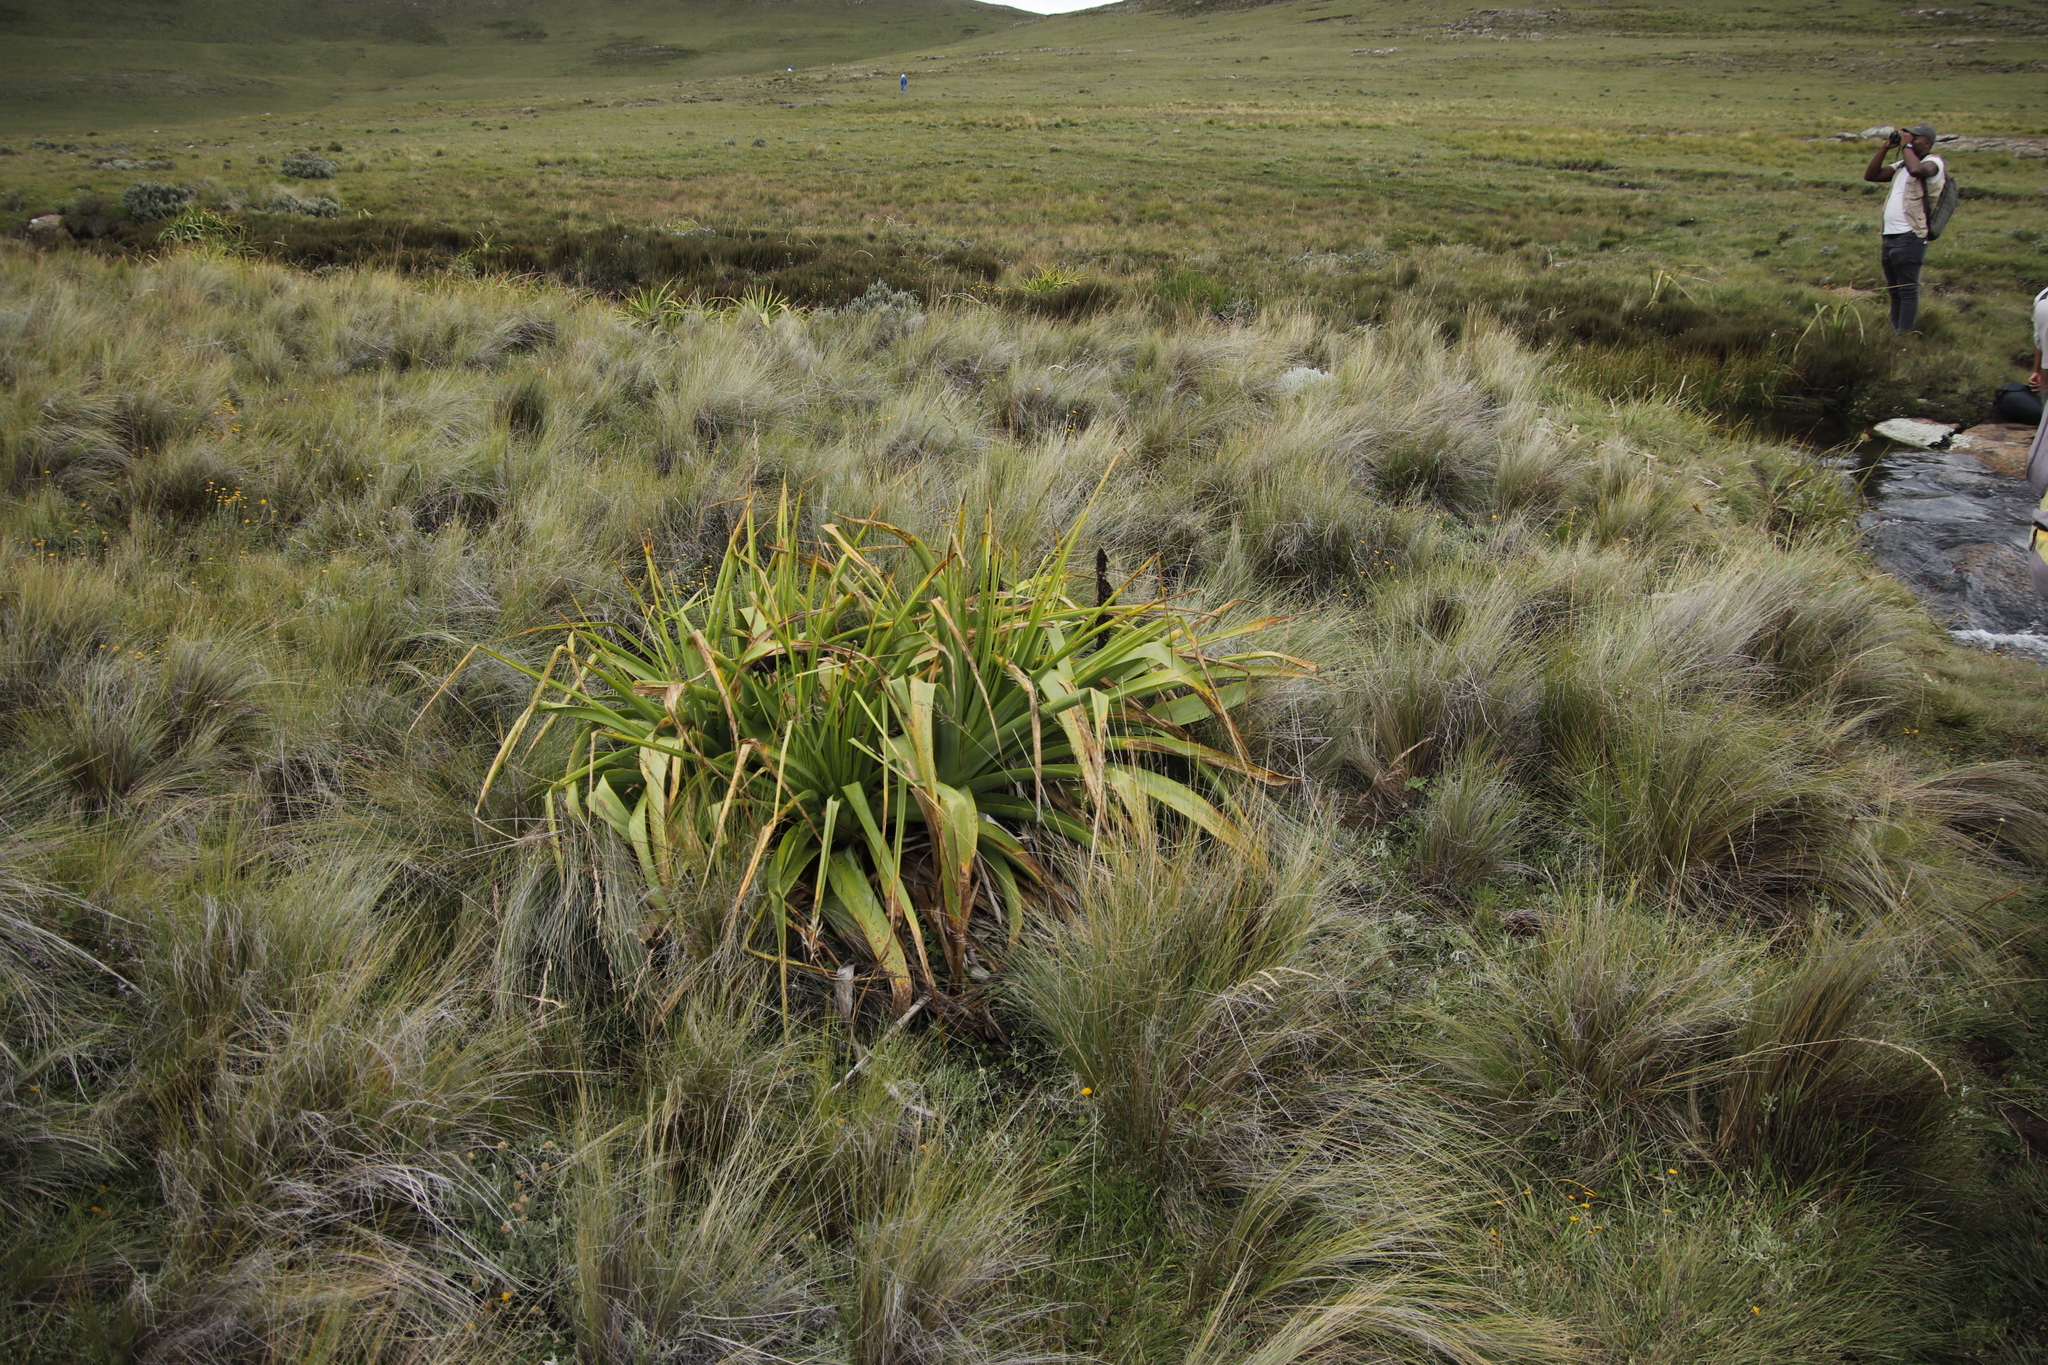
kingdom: Plantae
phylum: Tracheophyta
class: Liliopsida
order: Asparagales
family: Asphodelaceae
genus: Kniphofia
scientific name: Kniphofia northiae
